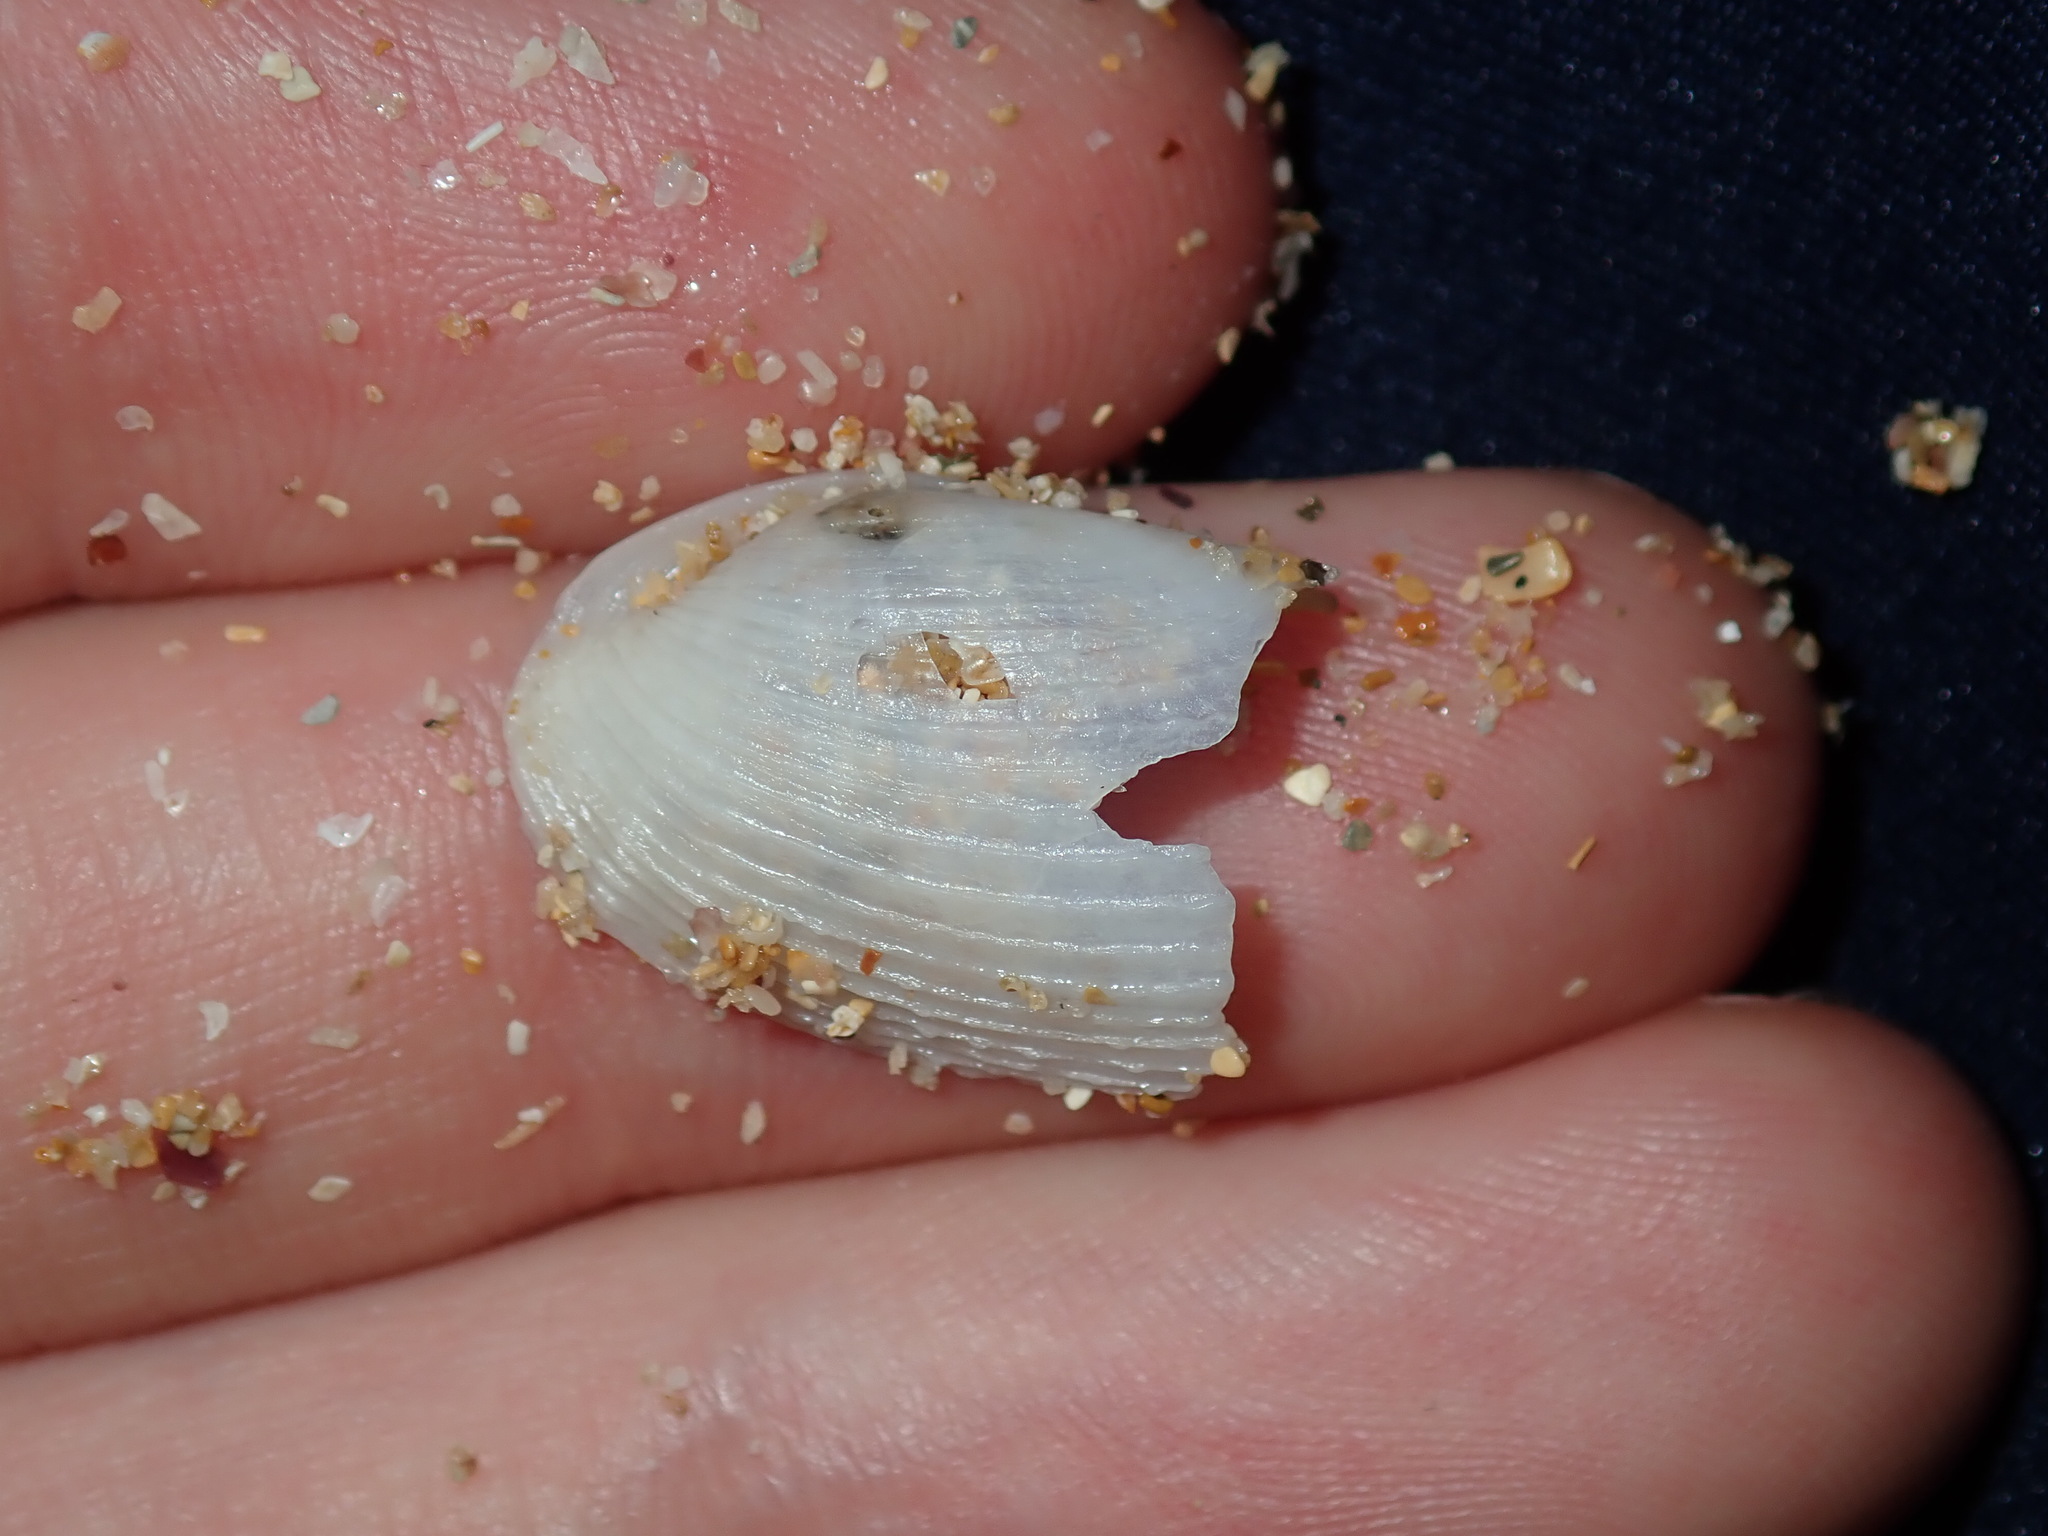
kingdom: Animalia
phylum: Mollusca
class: Bivalvia
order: Myida
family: Pholadidae
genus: Barnea
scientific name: Barnea australasiae
